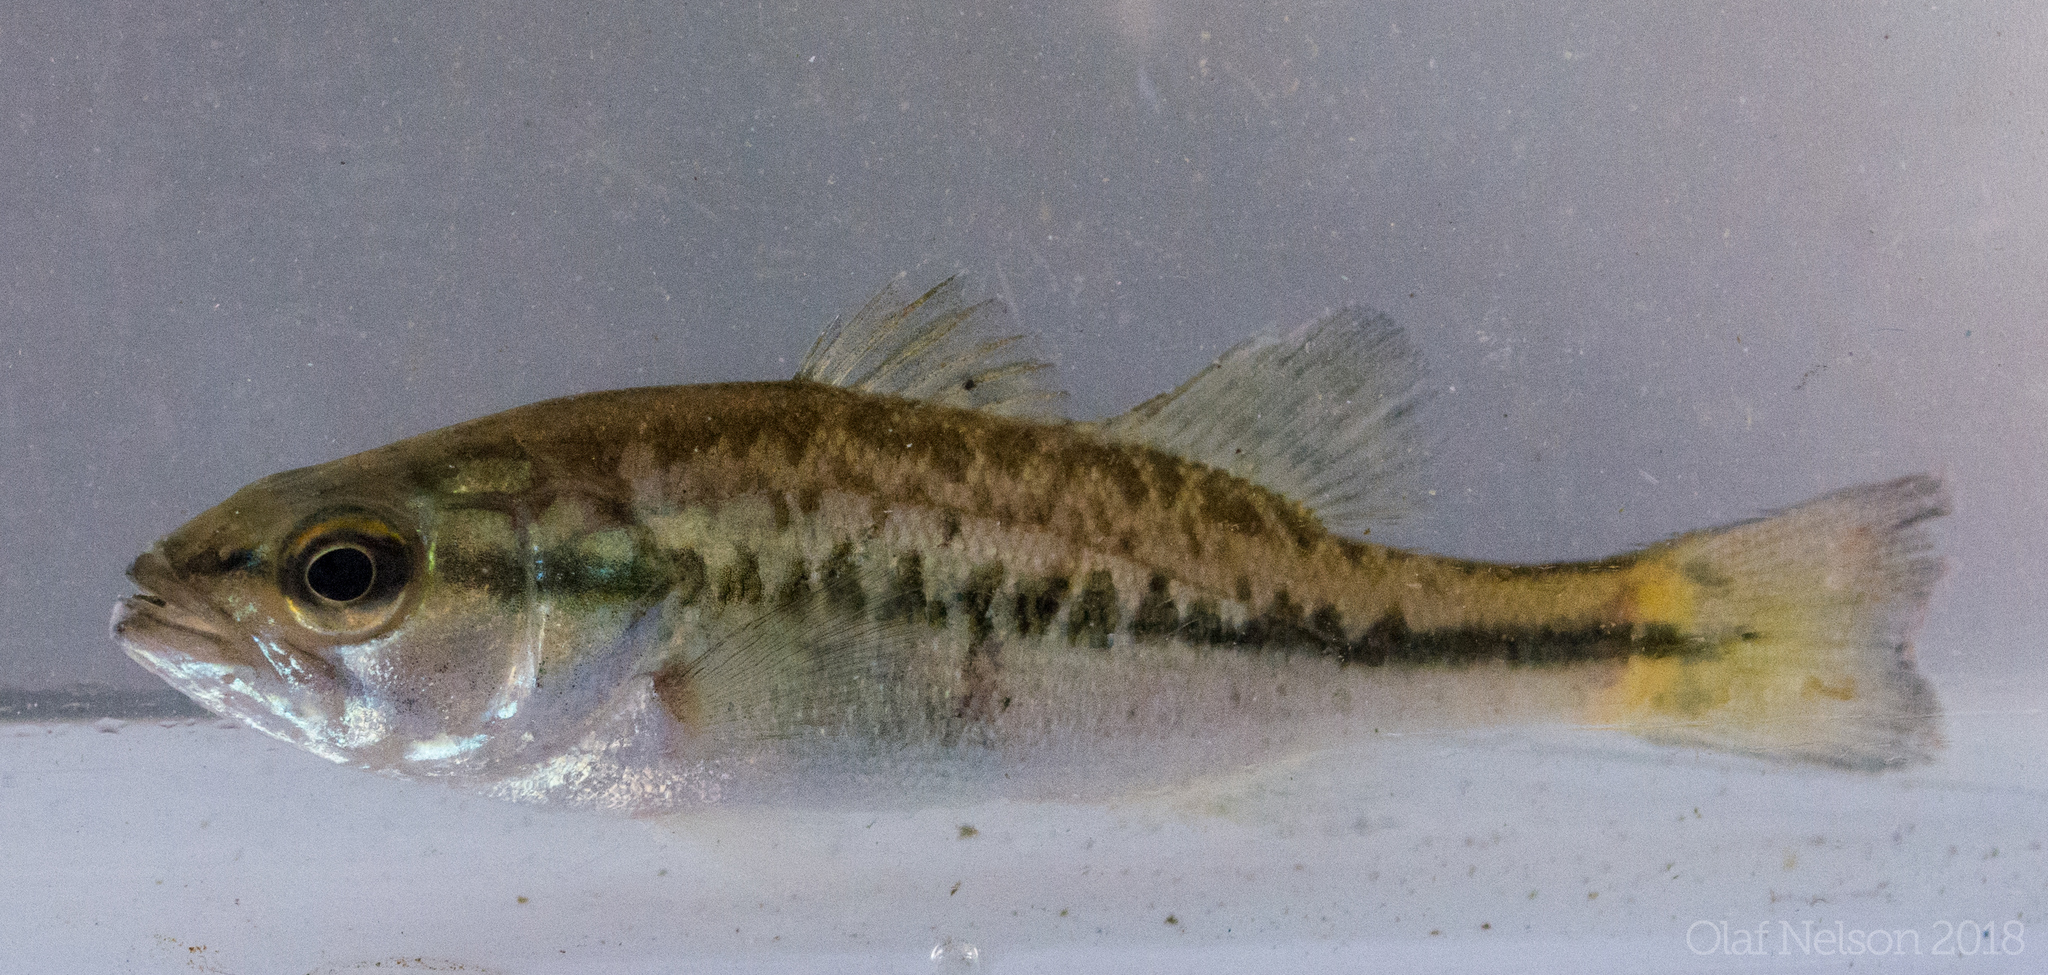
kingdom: Animalia
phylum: Chordata
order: Perciformes
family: Centrarchidae
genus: Micropterus
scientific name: Micropterus
